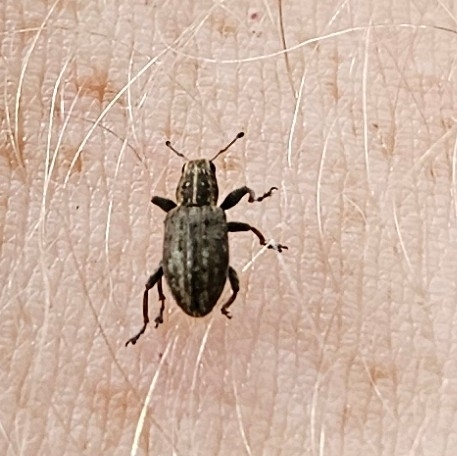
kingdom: Animalia
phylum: Arthropoda
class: Insecta
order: Coleoptera
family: Curculionidae
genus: Sitona
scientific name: Sitona obsoletus
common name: Weevil
